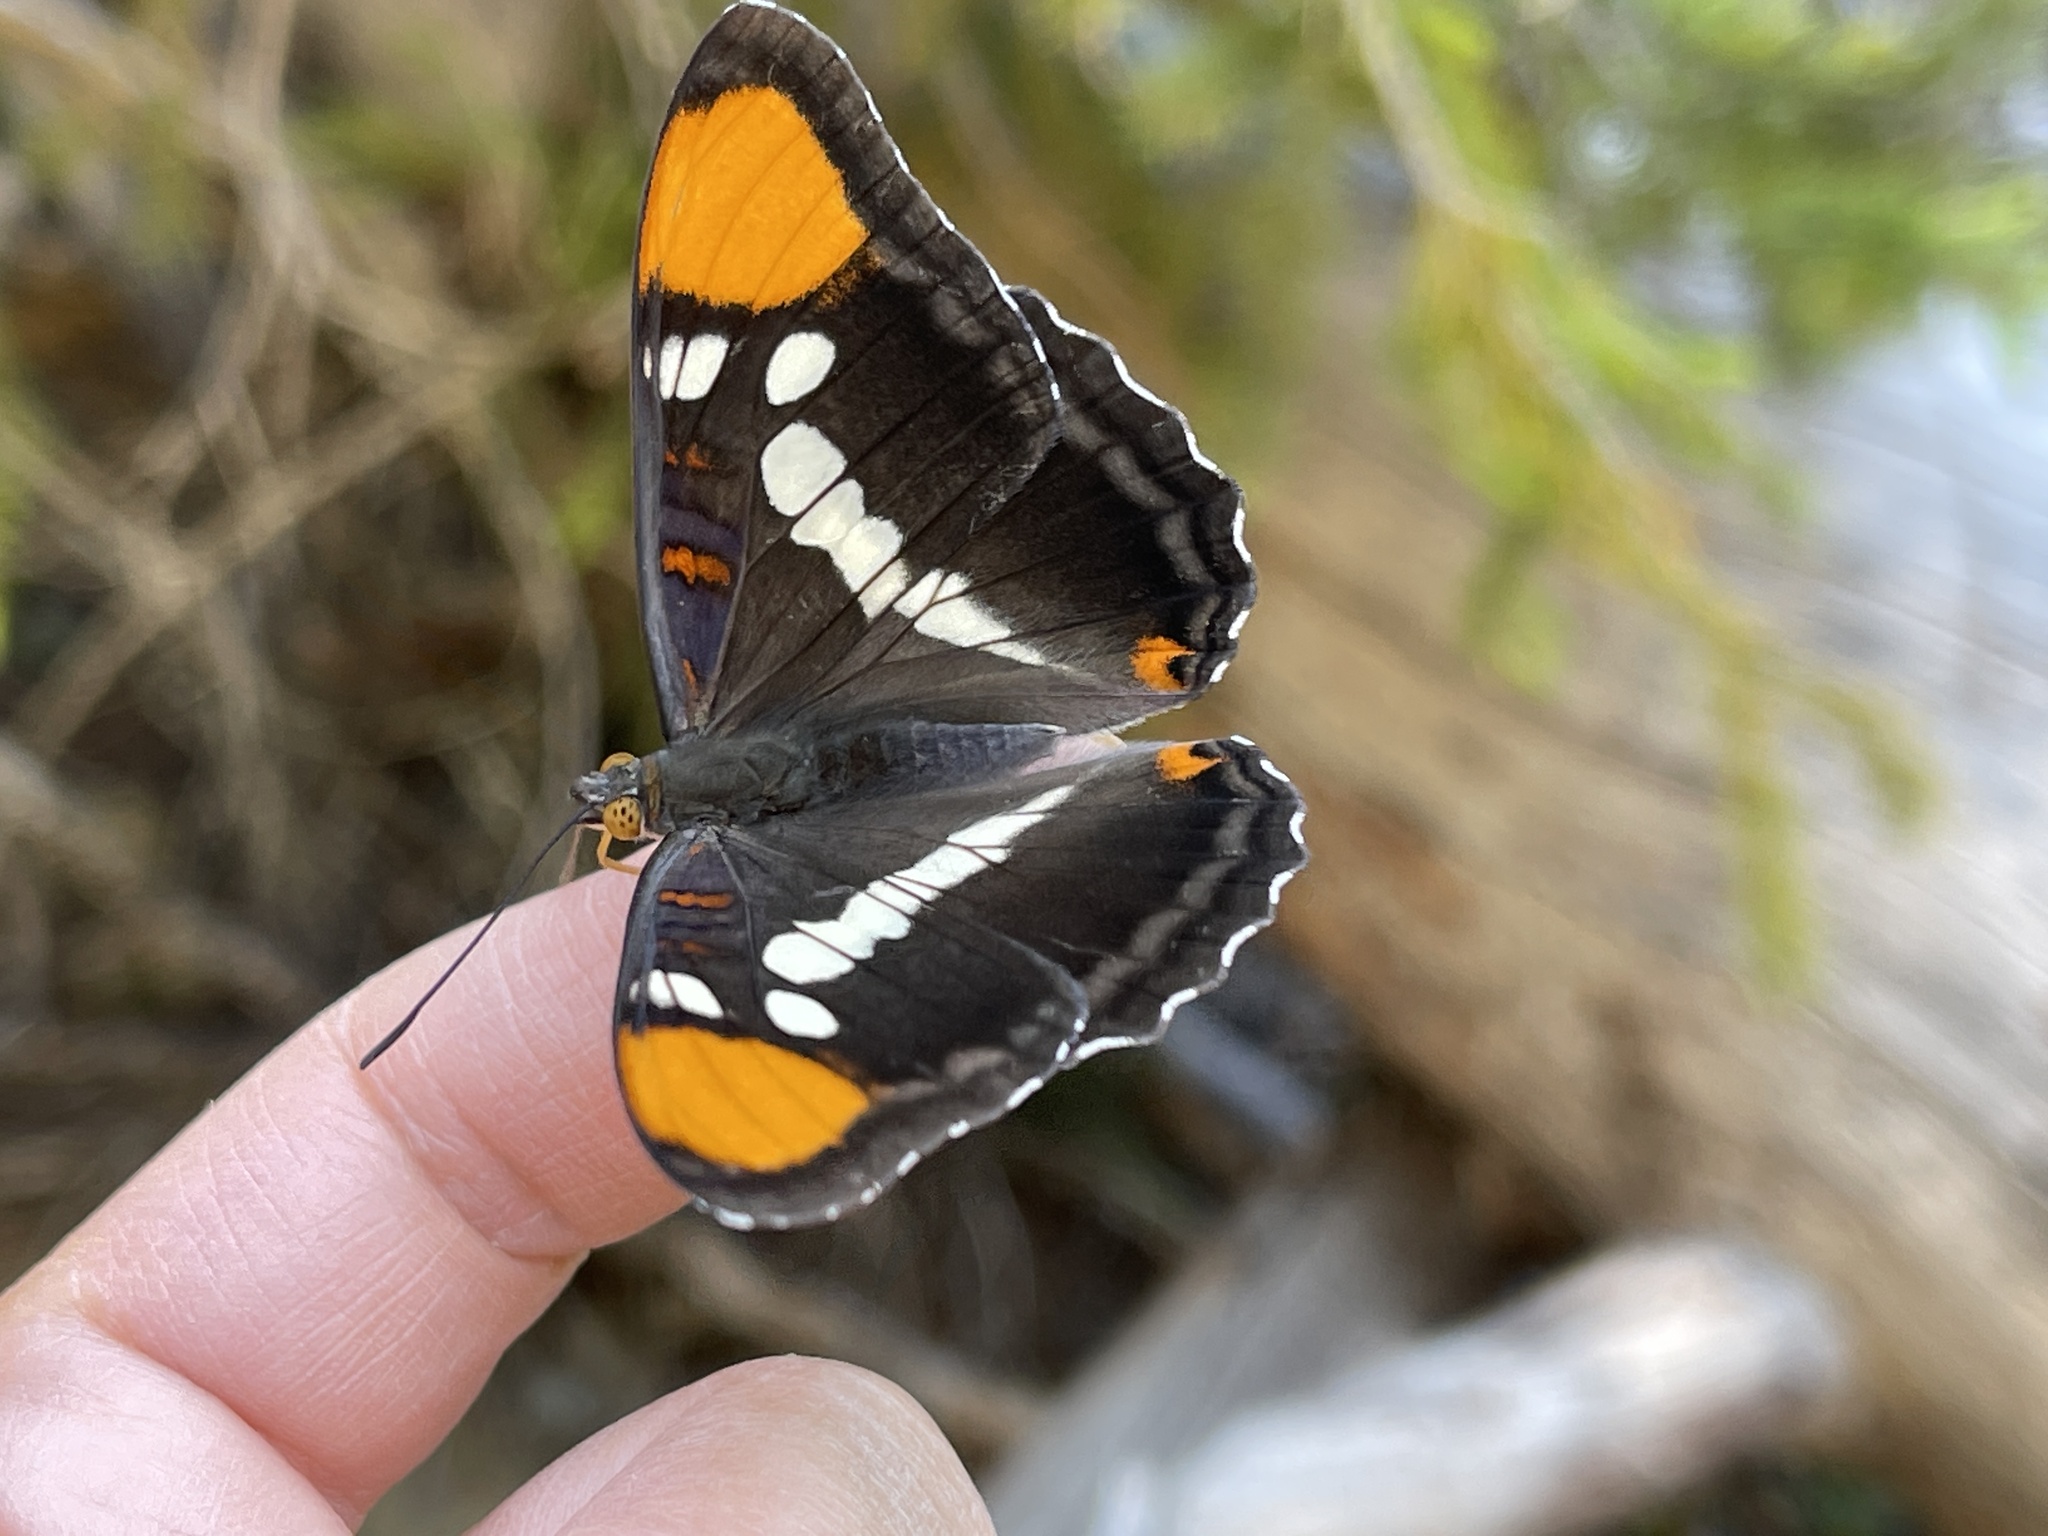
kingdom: Animalia
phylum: Arthropoda
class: Insecta
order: Lepidoptera
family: Nymphalidae
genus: Limenitis
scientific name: Limenitis bredowii
